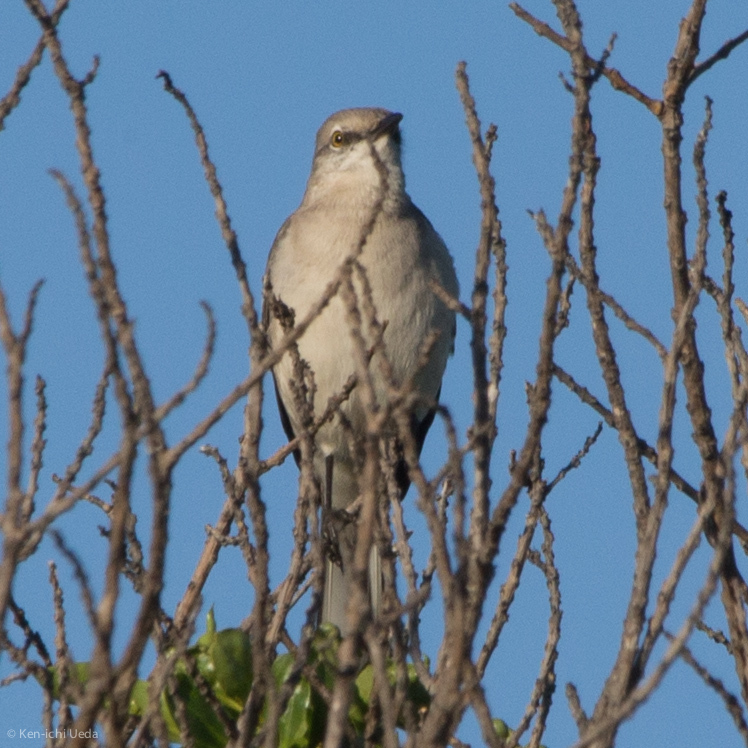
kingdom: Animalia
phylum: Chordata
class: Aves
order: Passeriformes
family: Mimidae
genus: Mimus
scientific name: Mimus polyglottos
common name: Northern mockingbird
